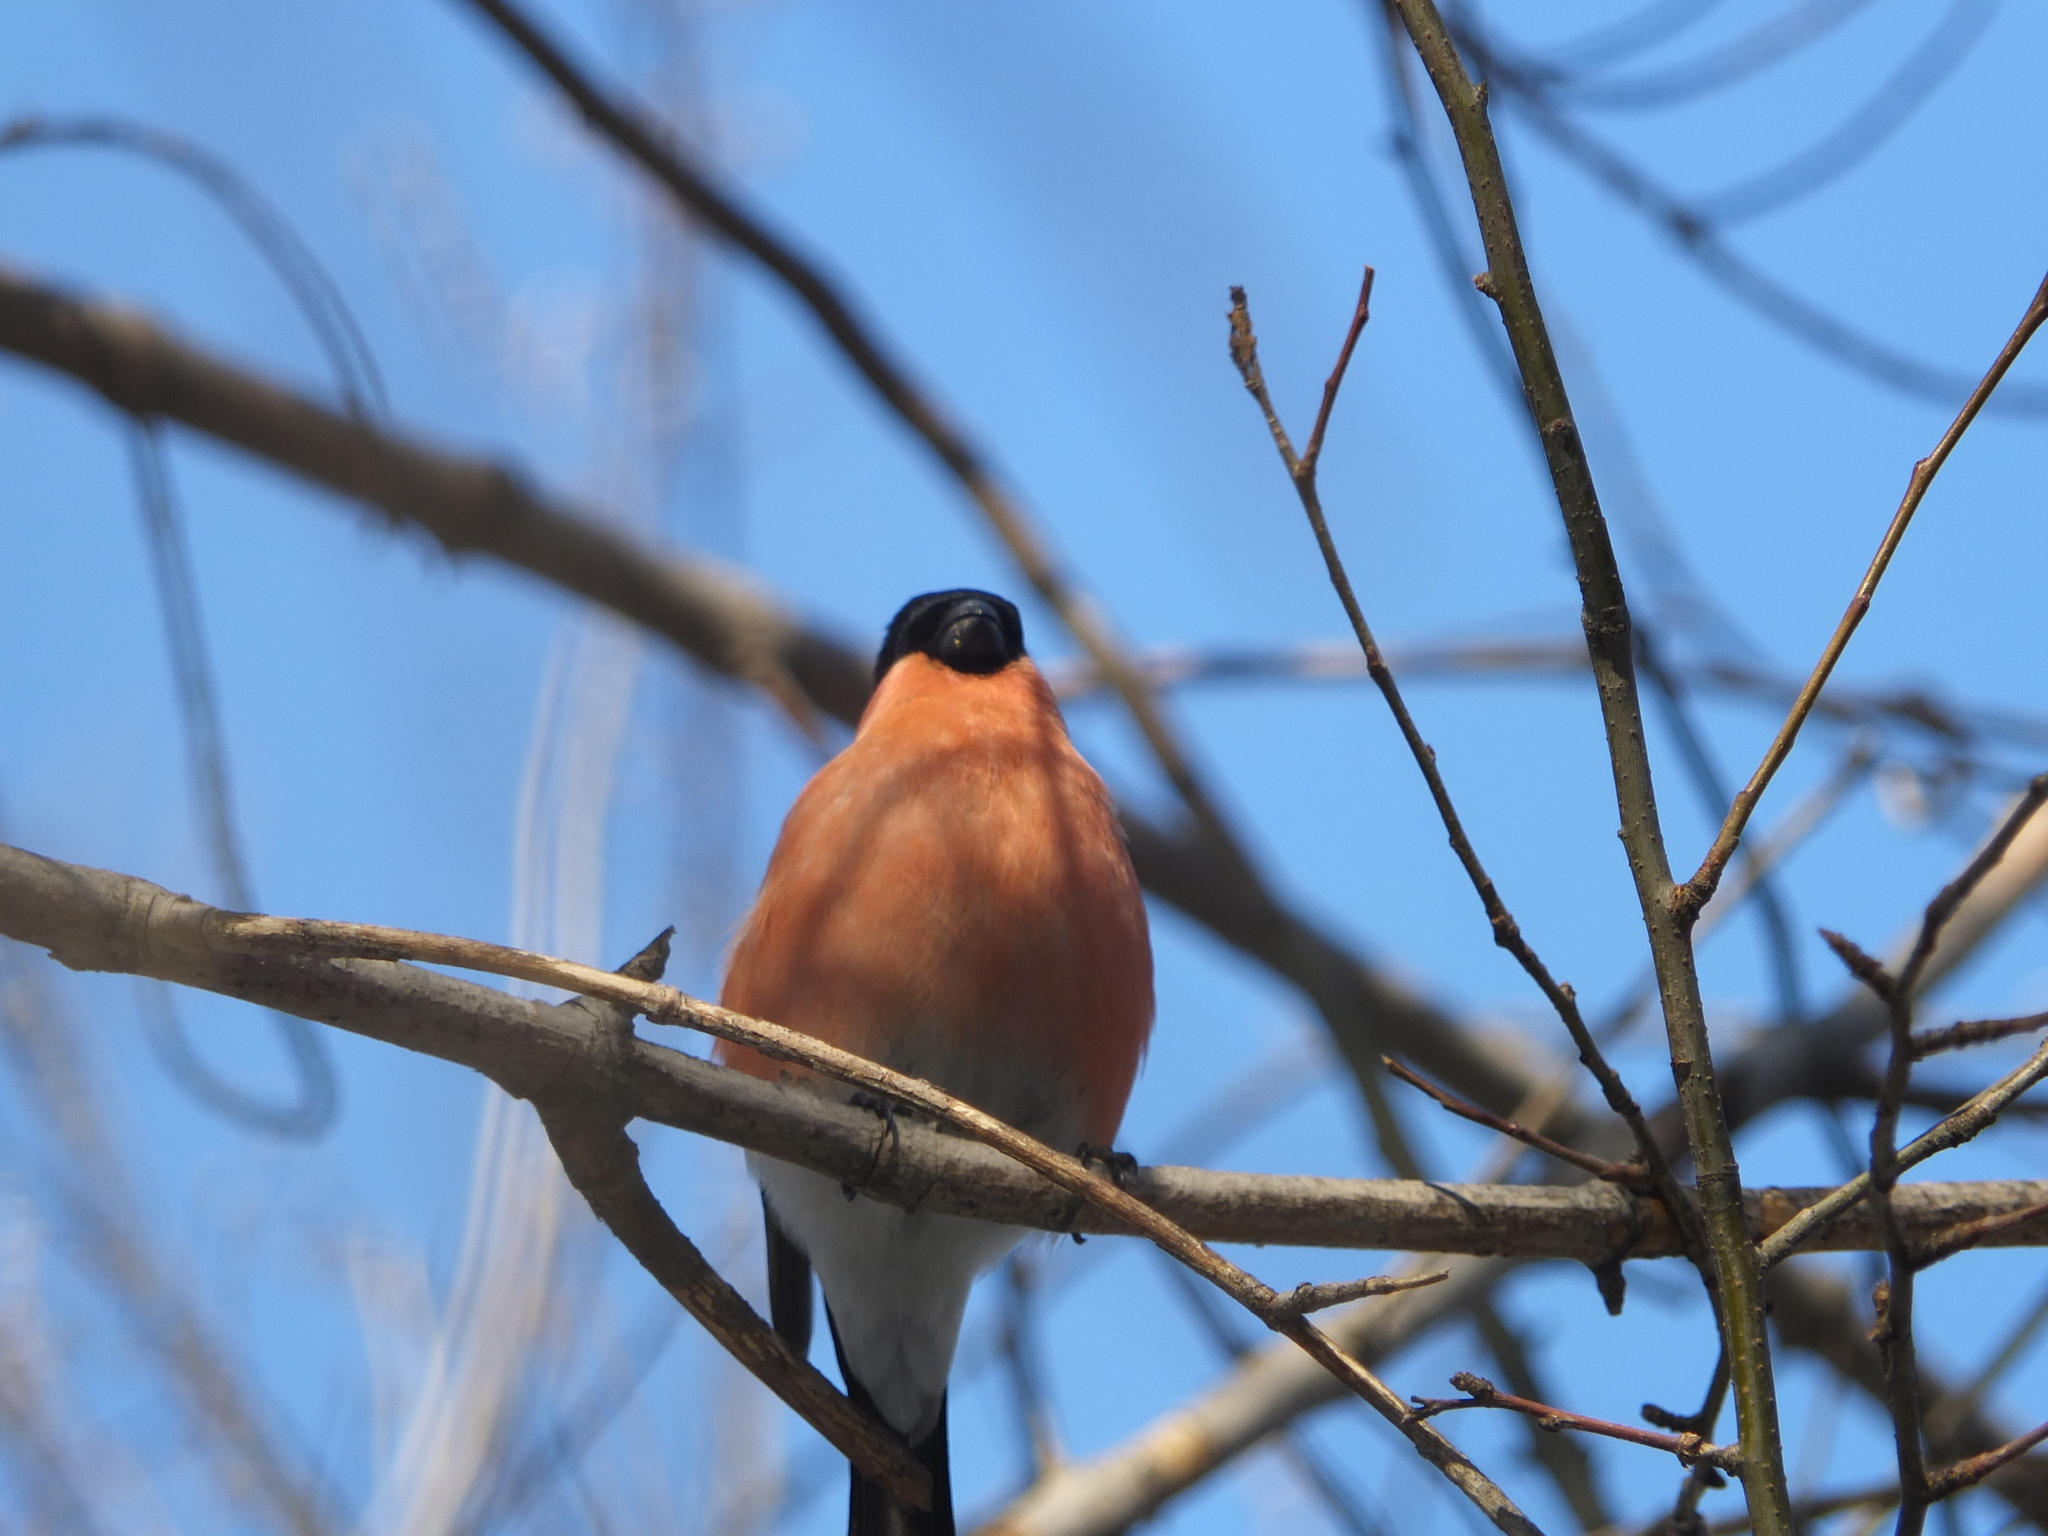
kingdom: Animalia
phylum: Chordata
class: Aves
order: Passeriformes
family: Fringillidae
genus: Pyrrhula
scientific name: Pyrrhula pyrrhula
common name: Eurasian bullfinch
